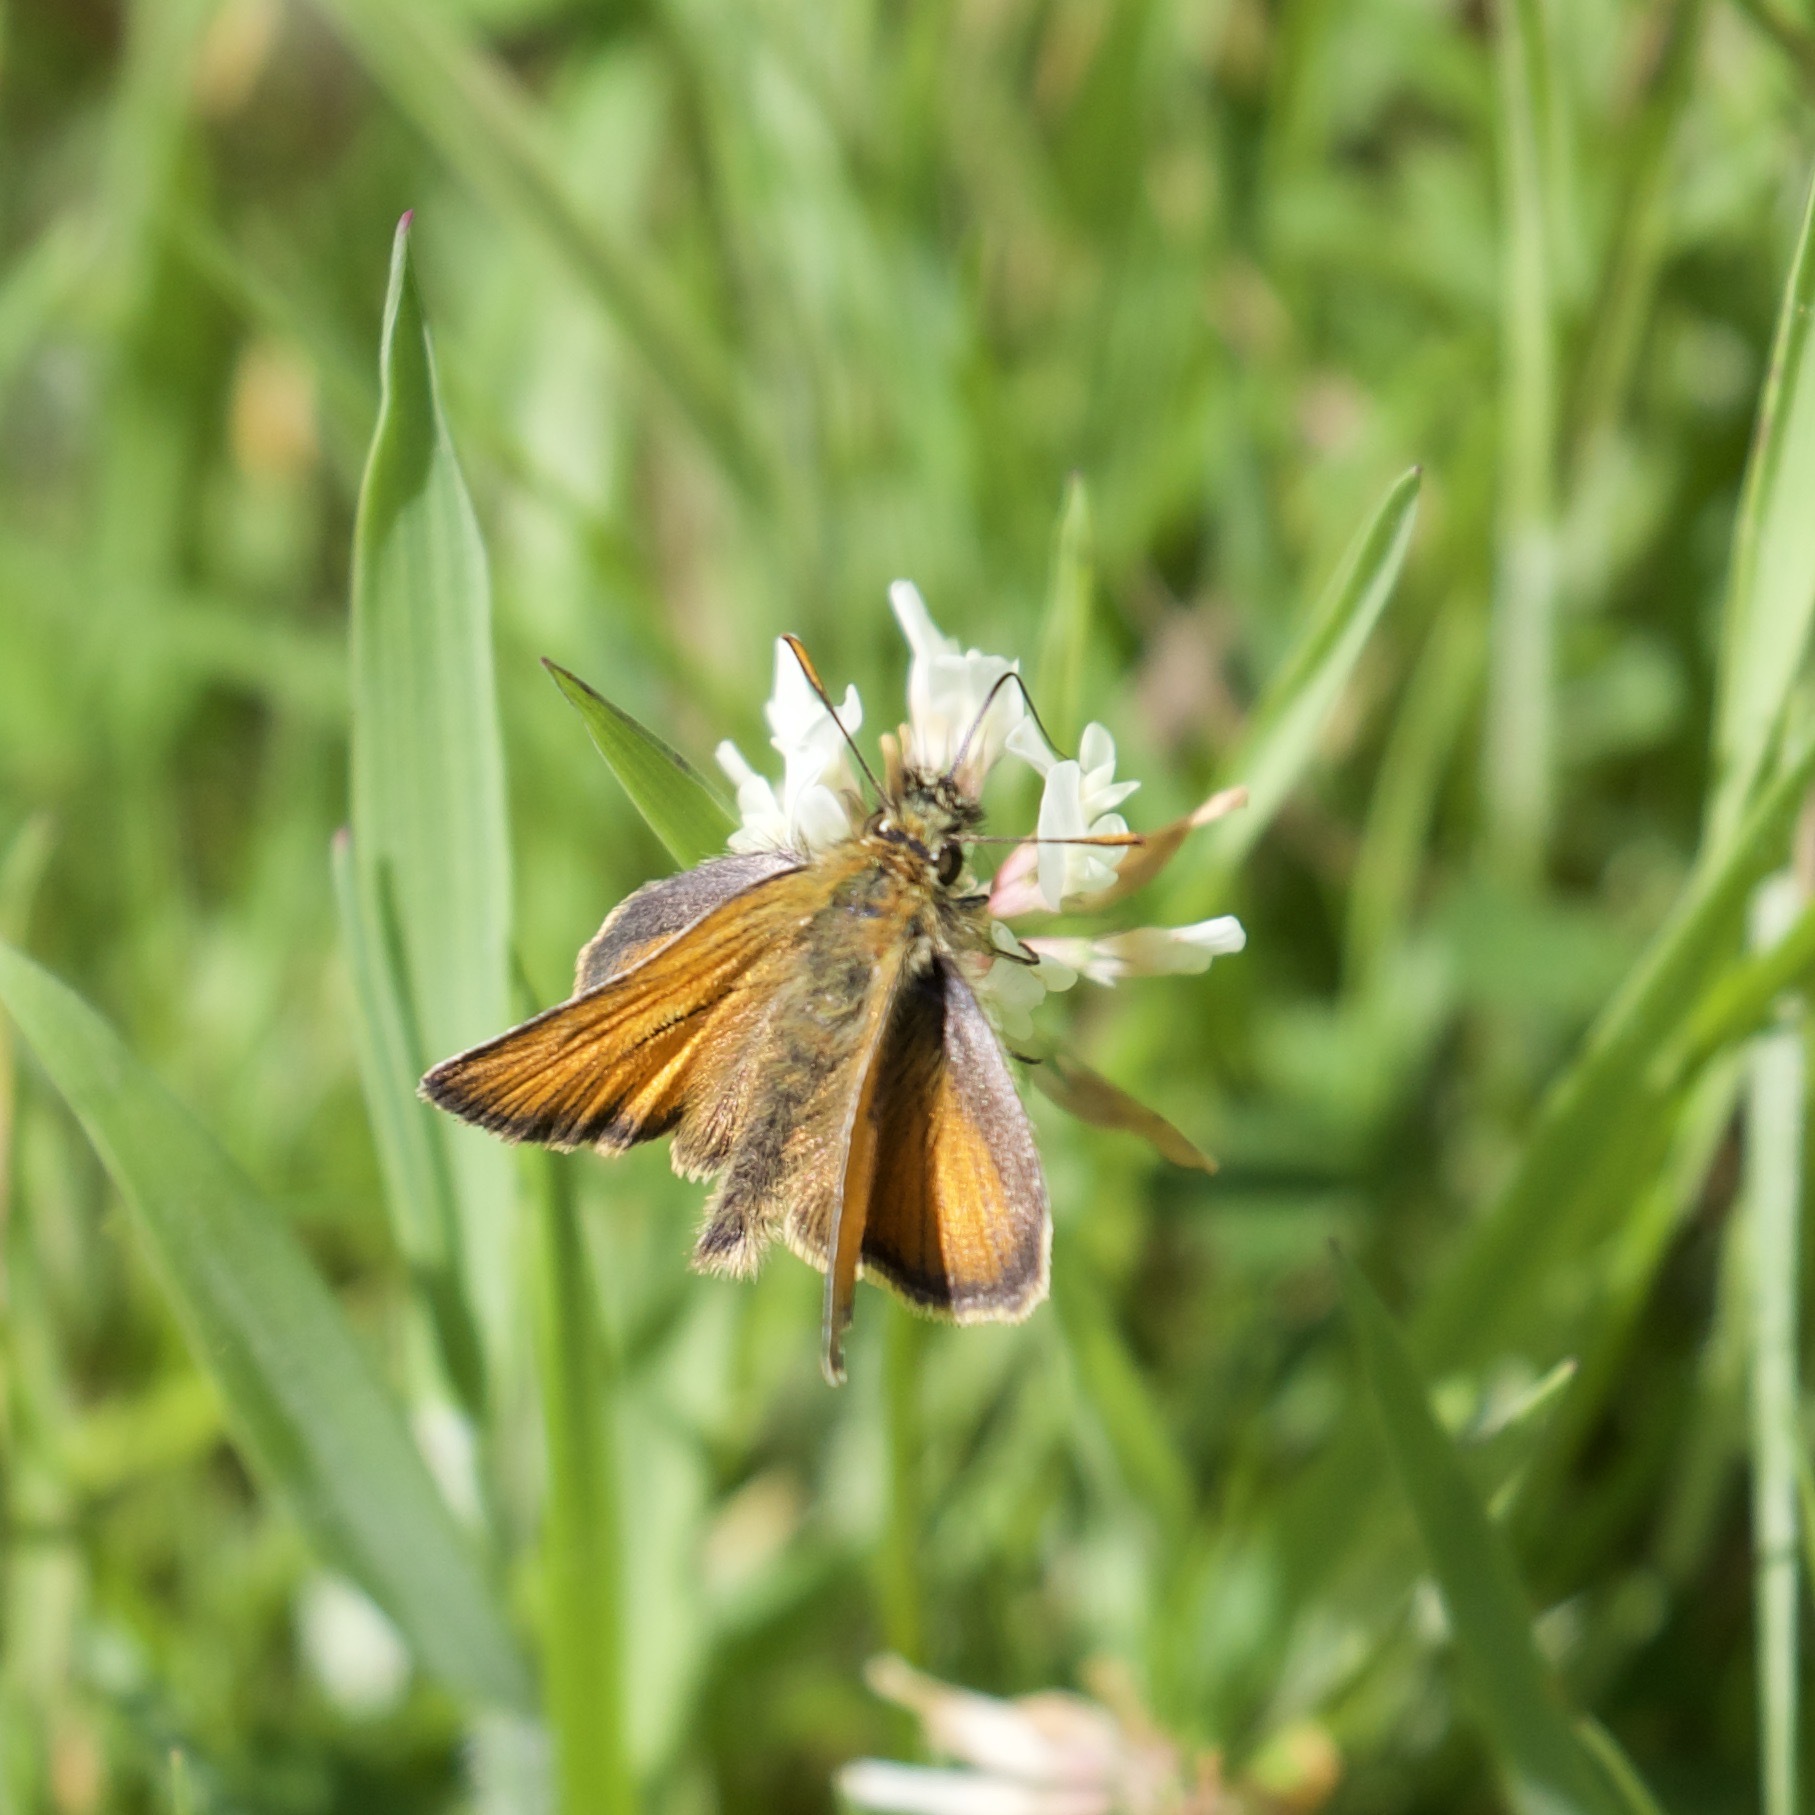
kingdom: Animalia
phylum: Arthropoda
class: Insecta
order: Lepidoptera
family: Hesperiidae
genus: Thymelicus
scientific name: Thymelicus sylvestris
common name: Small skipper
